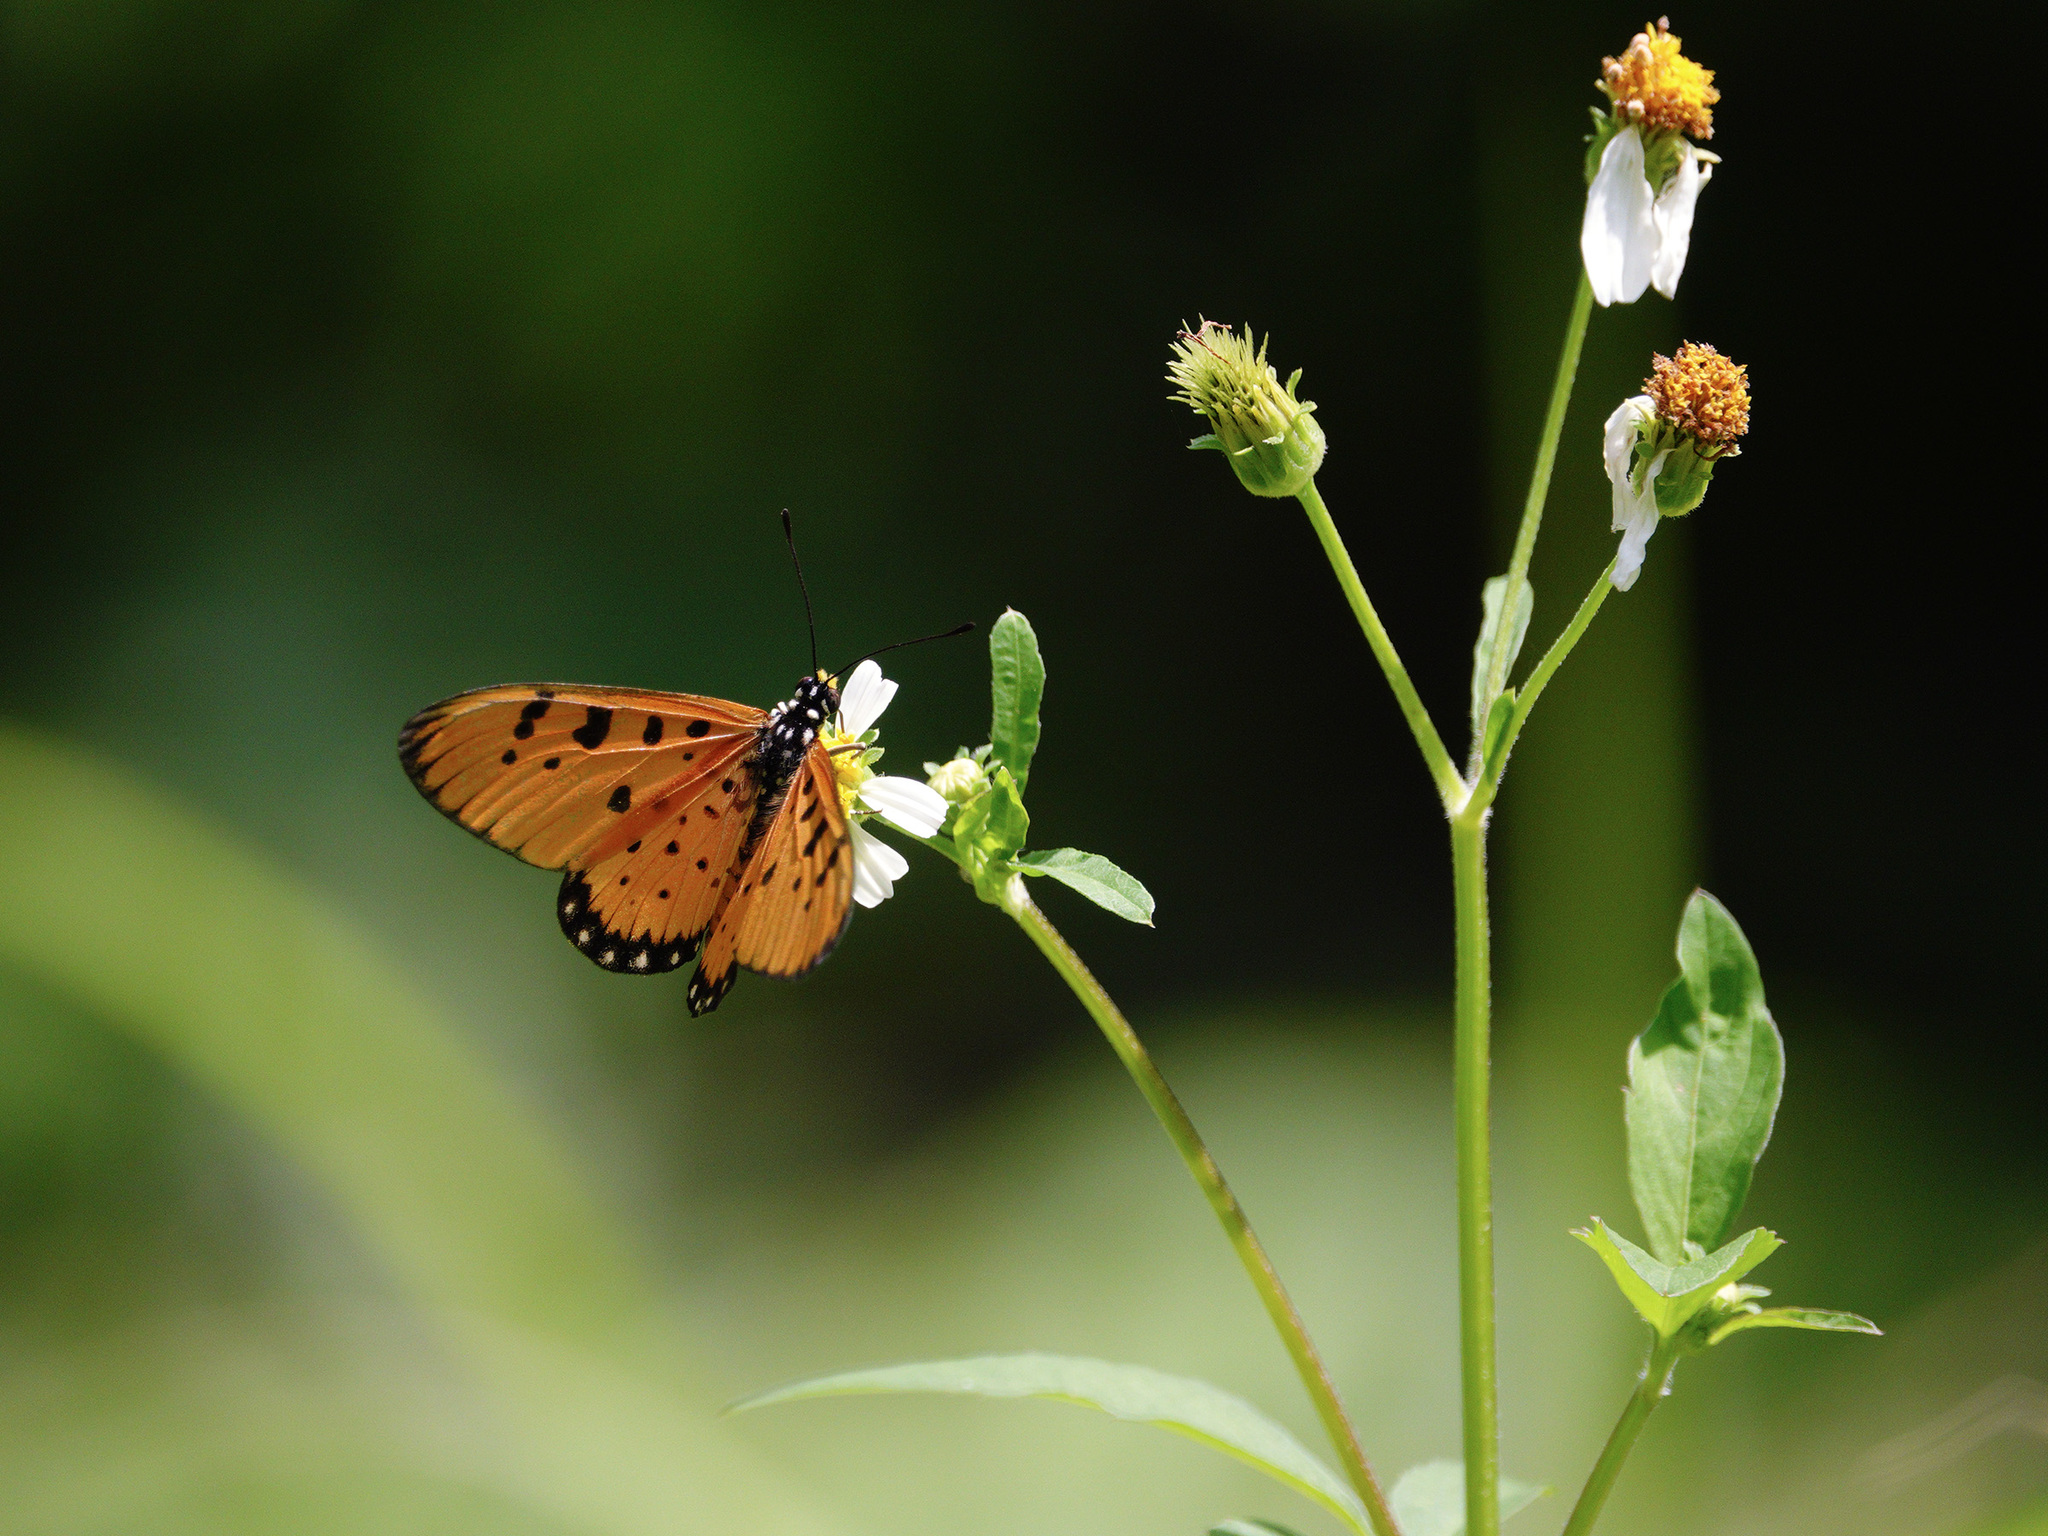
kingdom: Animalia
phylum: Arthropoda
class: Insecta
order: Lepidoptera
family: Nymphalidae
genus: Acraea
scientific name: Acraea terpsicore
